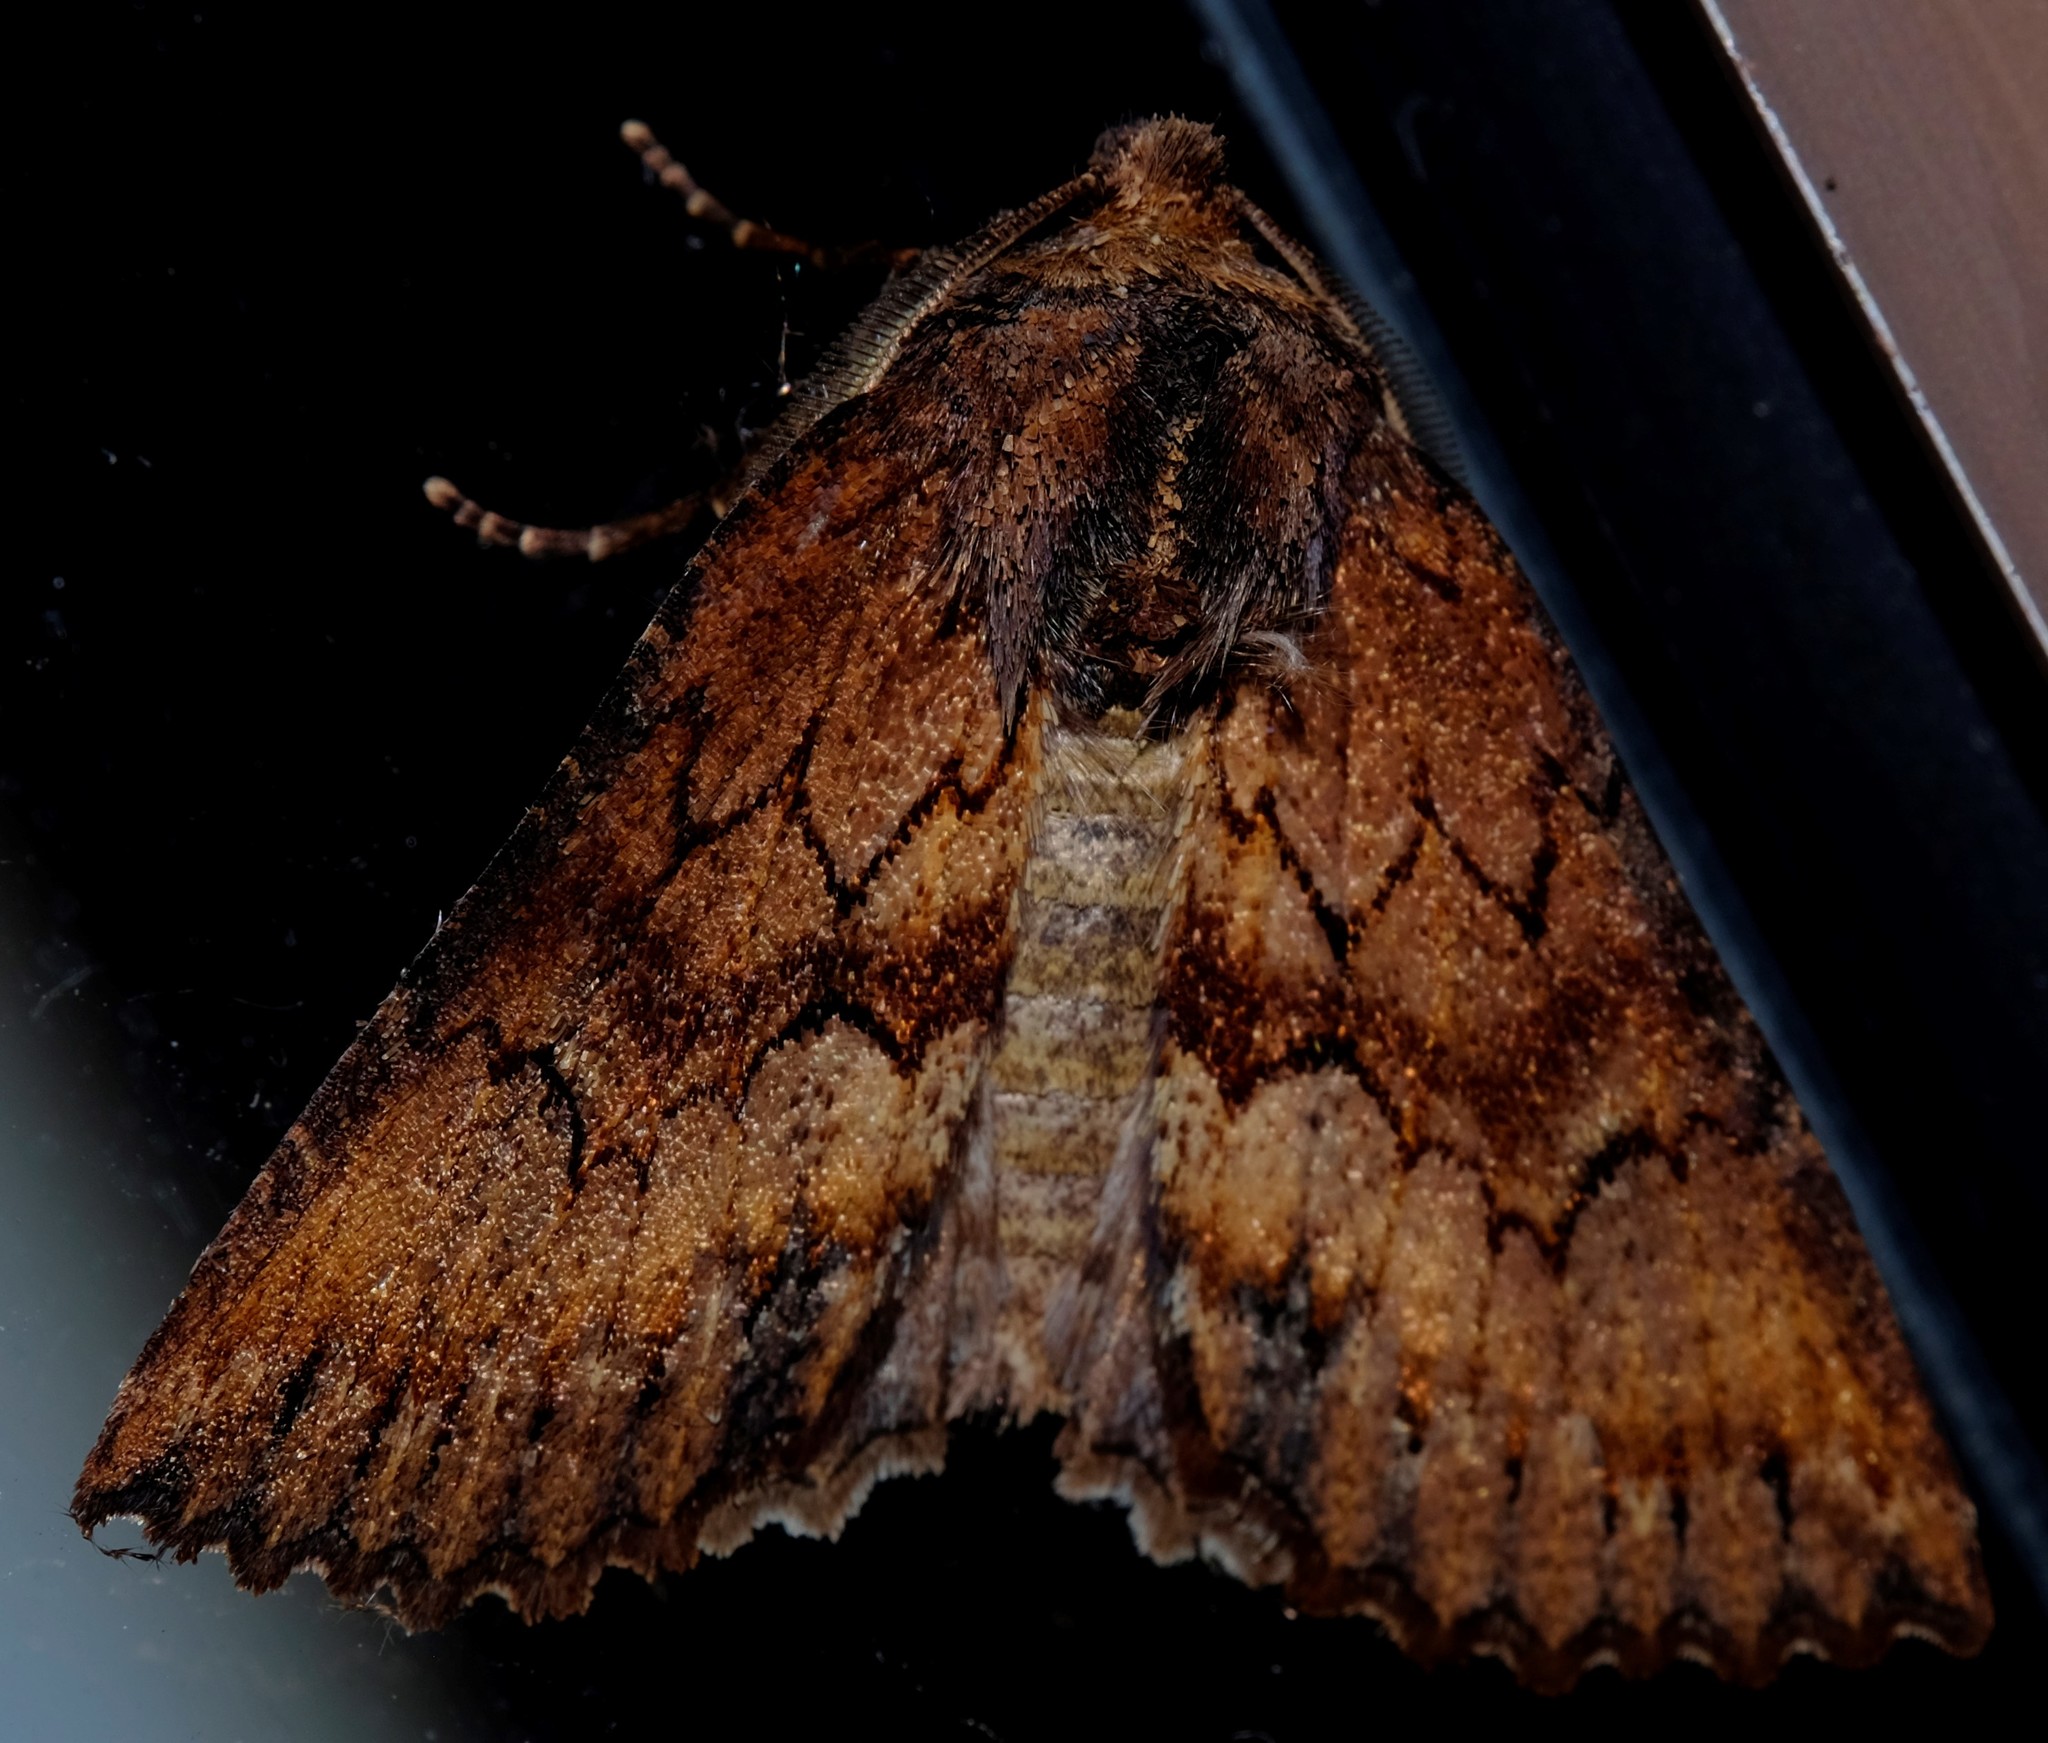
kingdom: Animalia
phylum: Arthropoda
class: Insecta
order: Lepidoptera
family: Geometridae
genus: Nisista
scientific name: Nisista serrata
